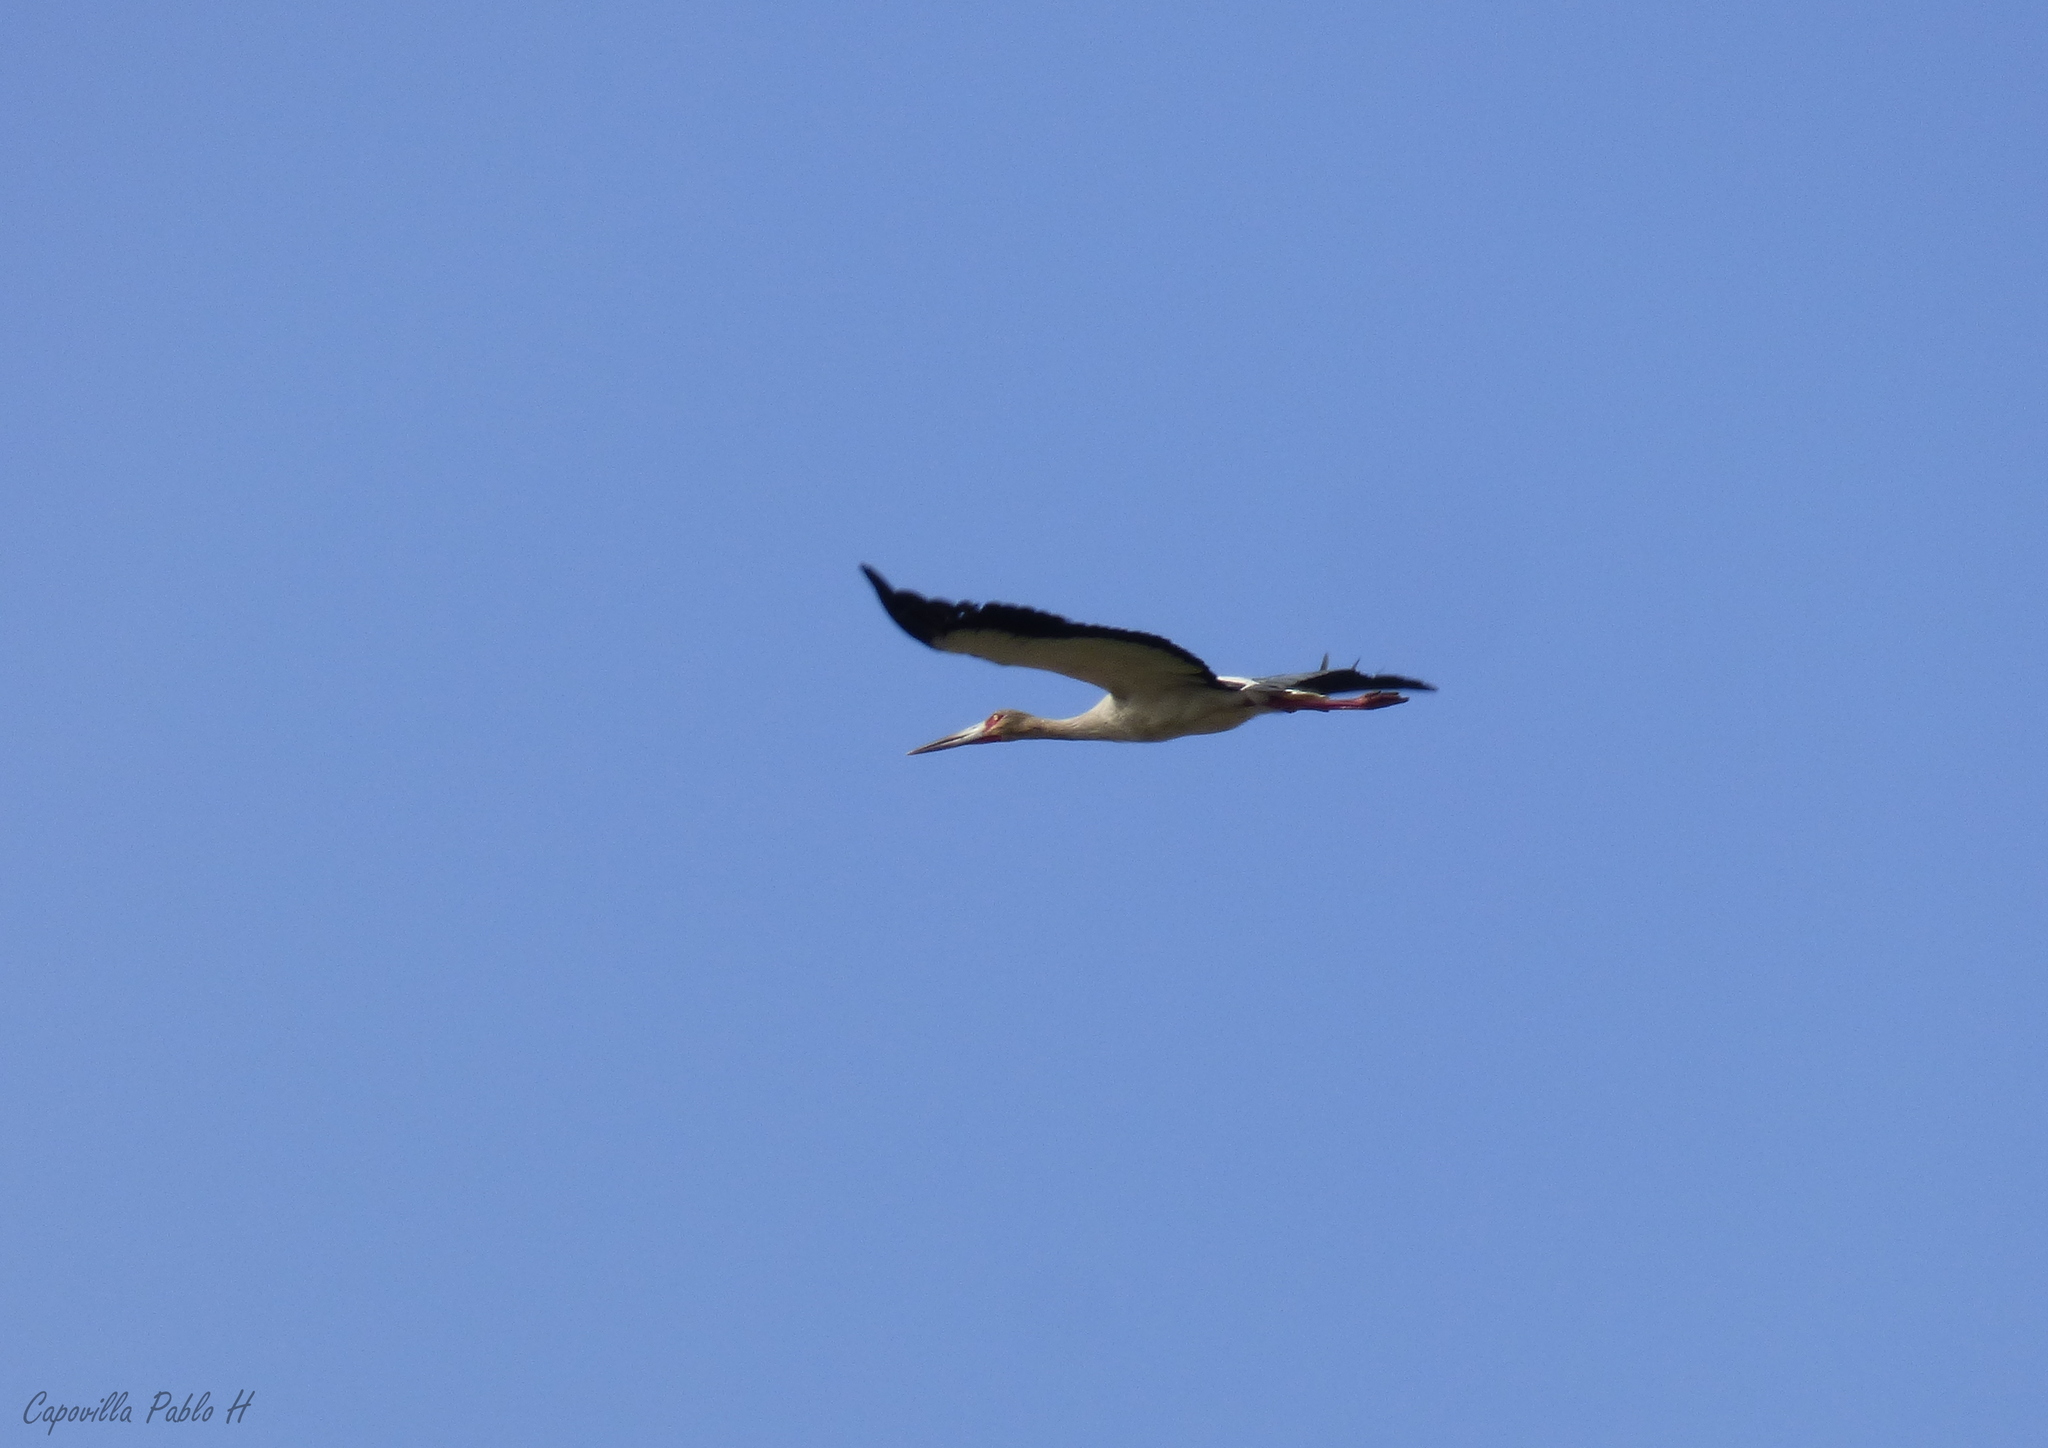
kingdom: Animalia
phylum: Chordata
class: Aves
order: Ciconiiformes
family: Ciconiidae
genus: Ciconia
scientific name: Ciconia maguari
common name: Maguari stork
